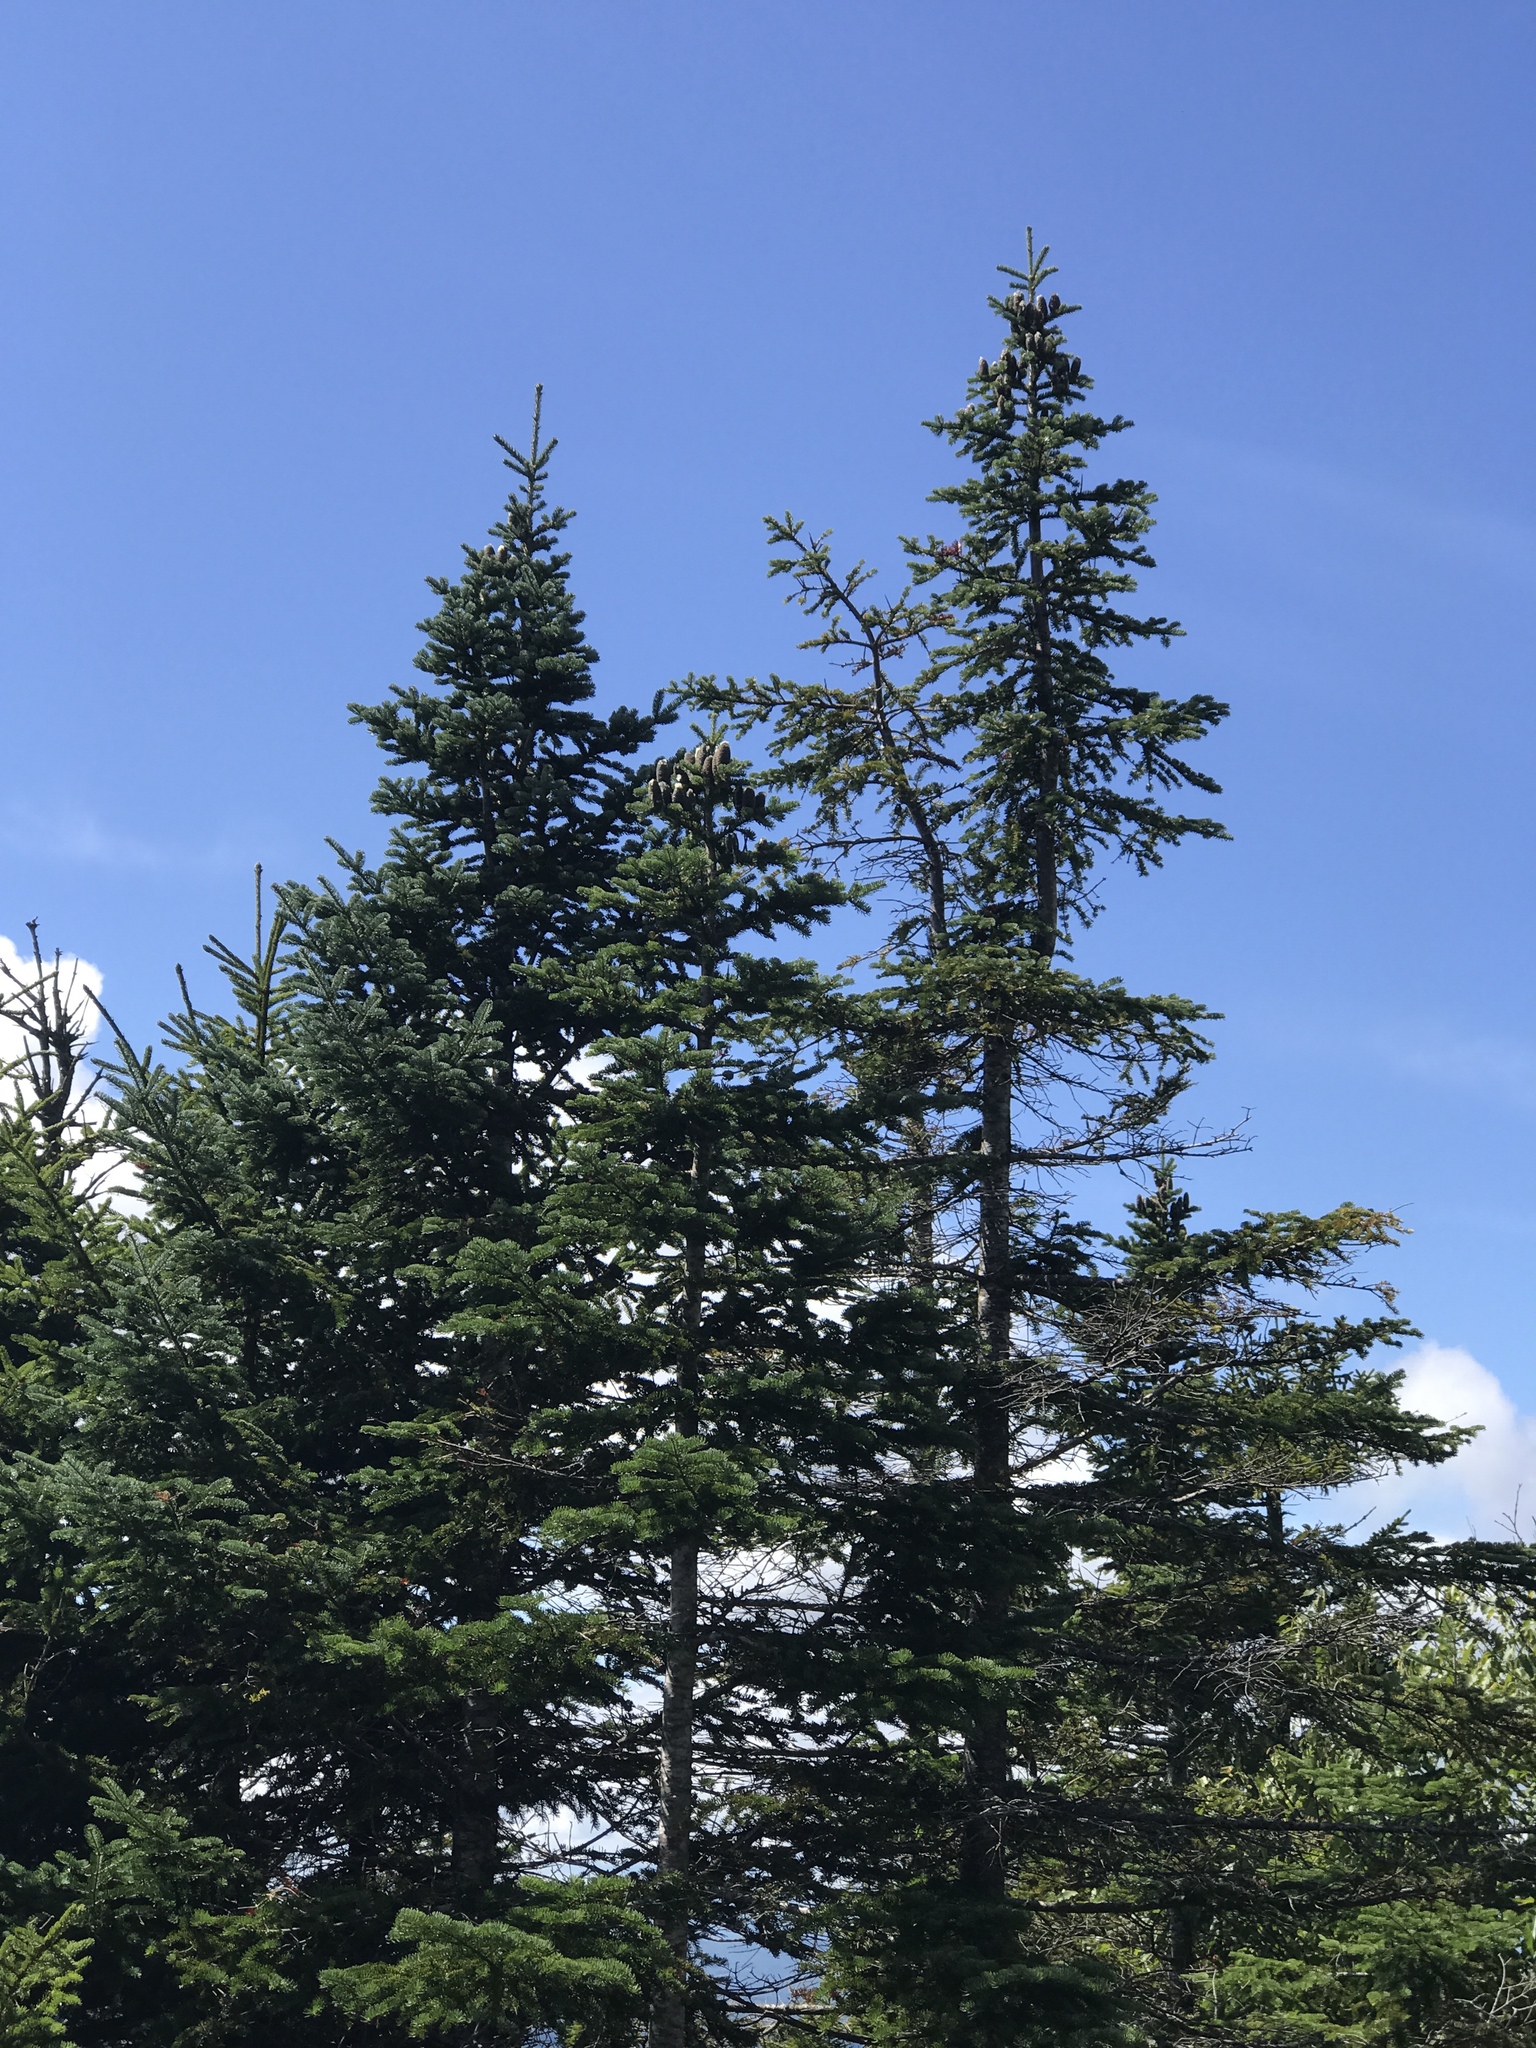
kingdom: Plantae
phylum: Tracheophyta
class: Pinopsida
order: Pinales
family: Pinaceae
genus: Abies
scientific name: Abies balsamea
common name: Balsam fir
